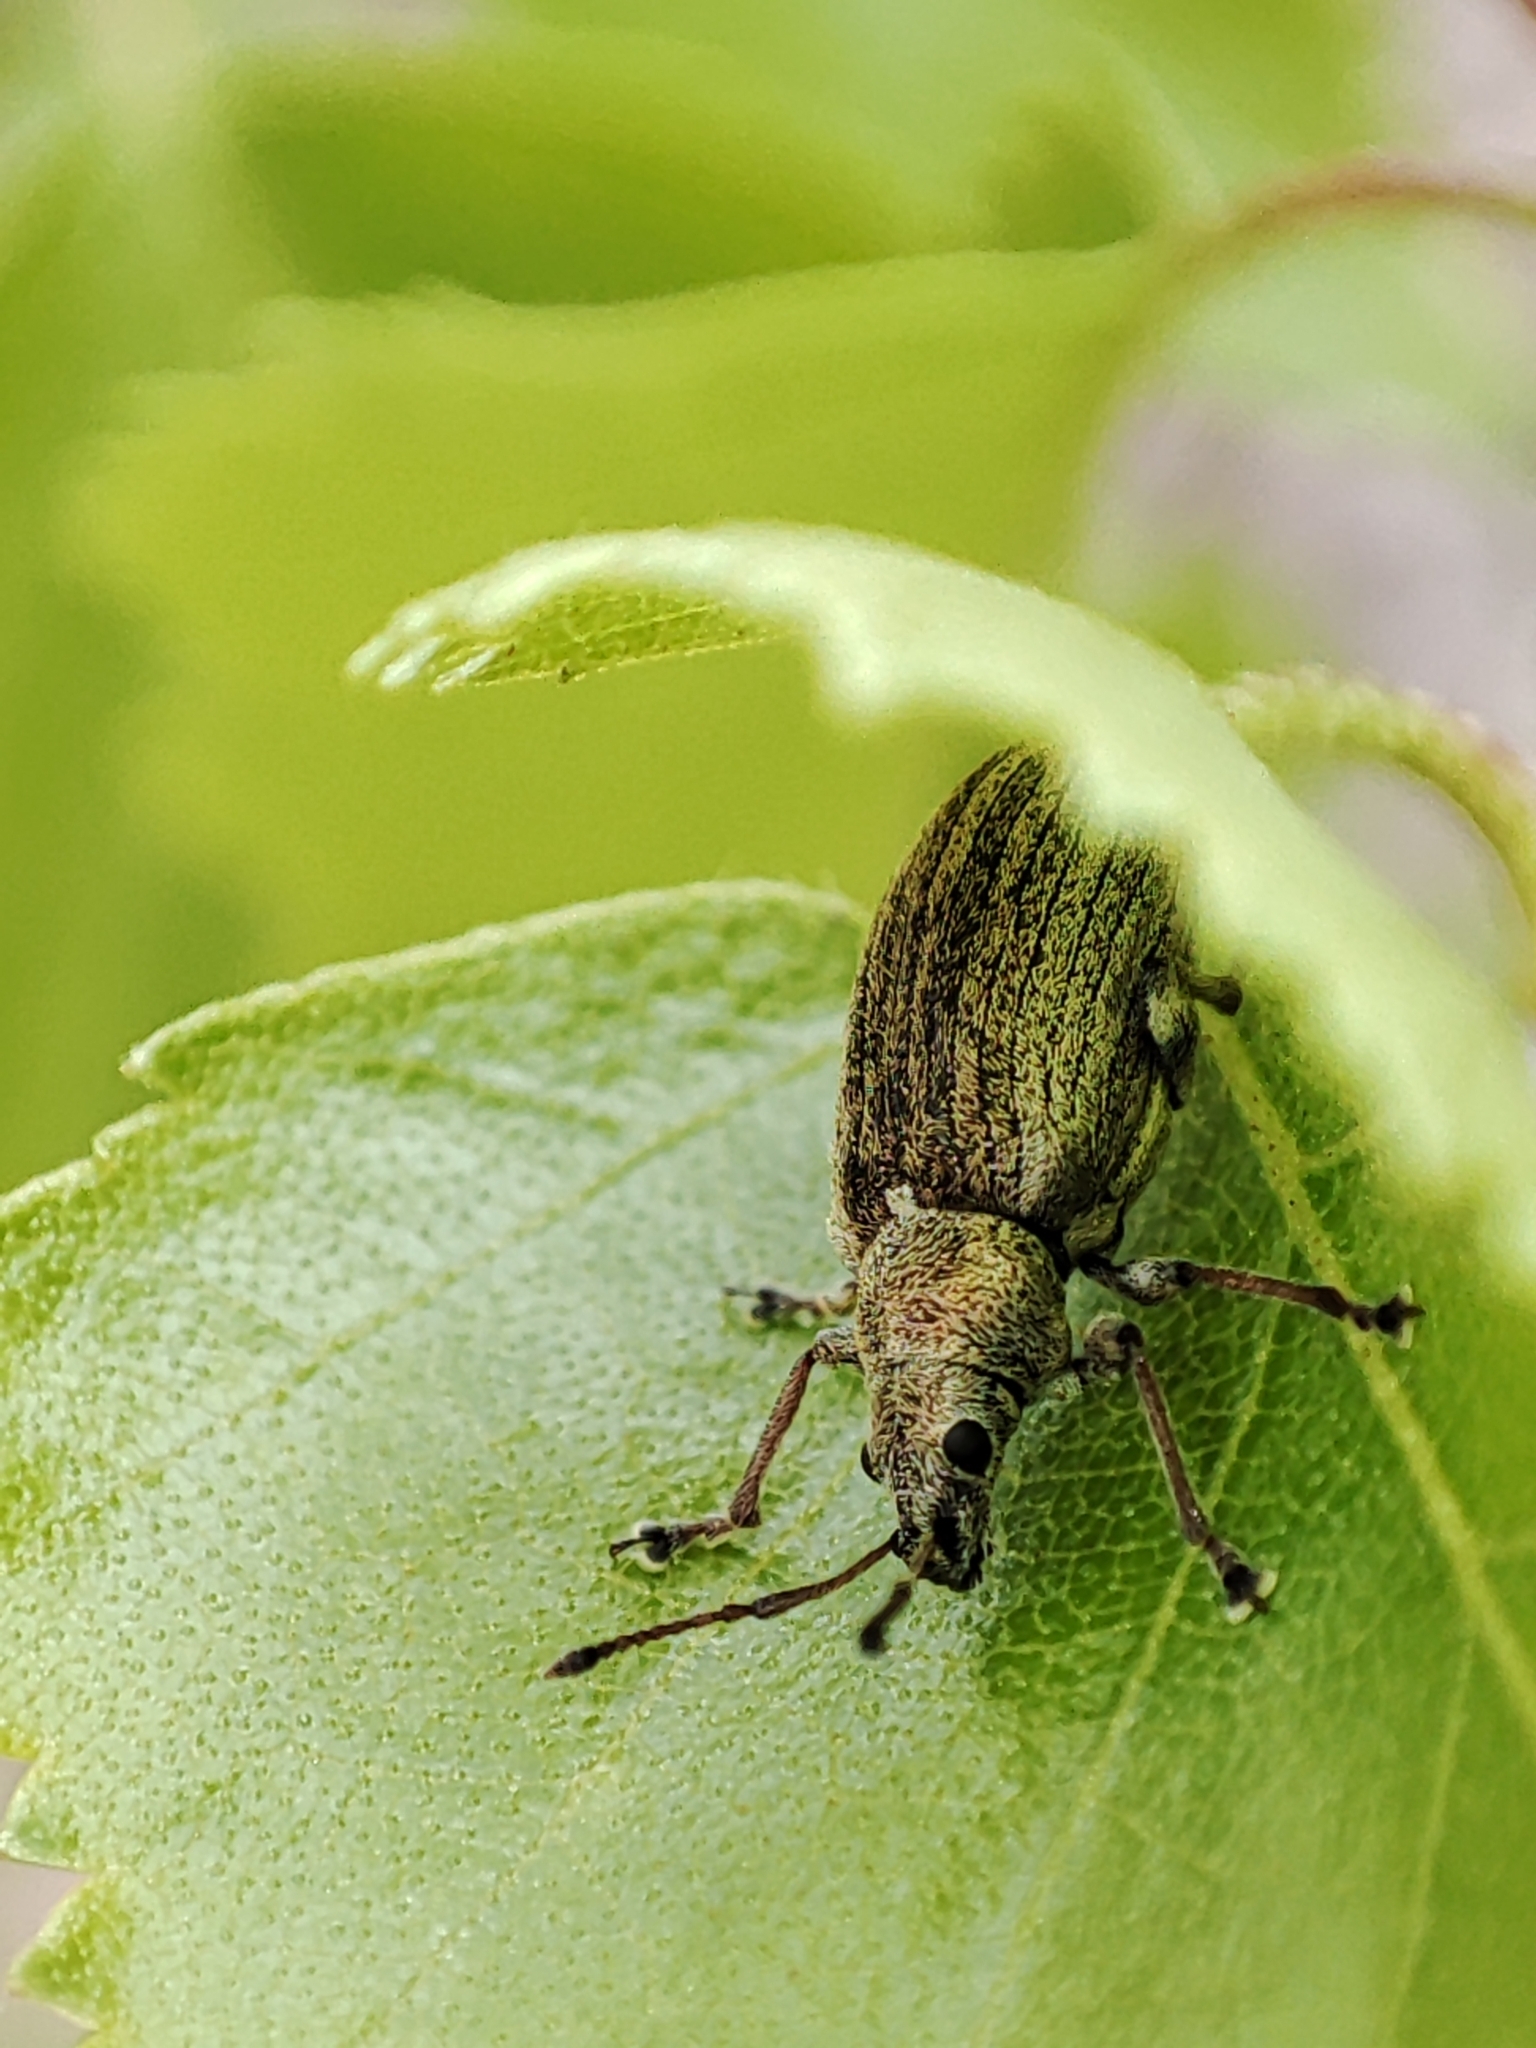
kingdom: Animalia
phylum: Arthropoda
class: Insecta
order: Coleoptera
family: Curculionidae
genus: Phyllobius
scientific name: Phyllobius pyri
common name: Common leaf weevil
